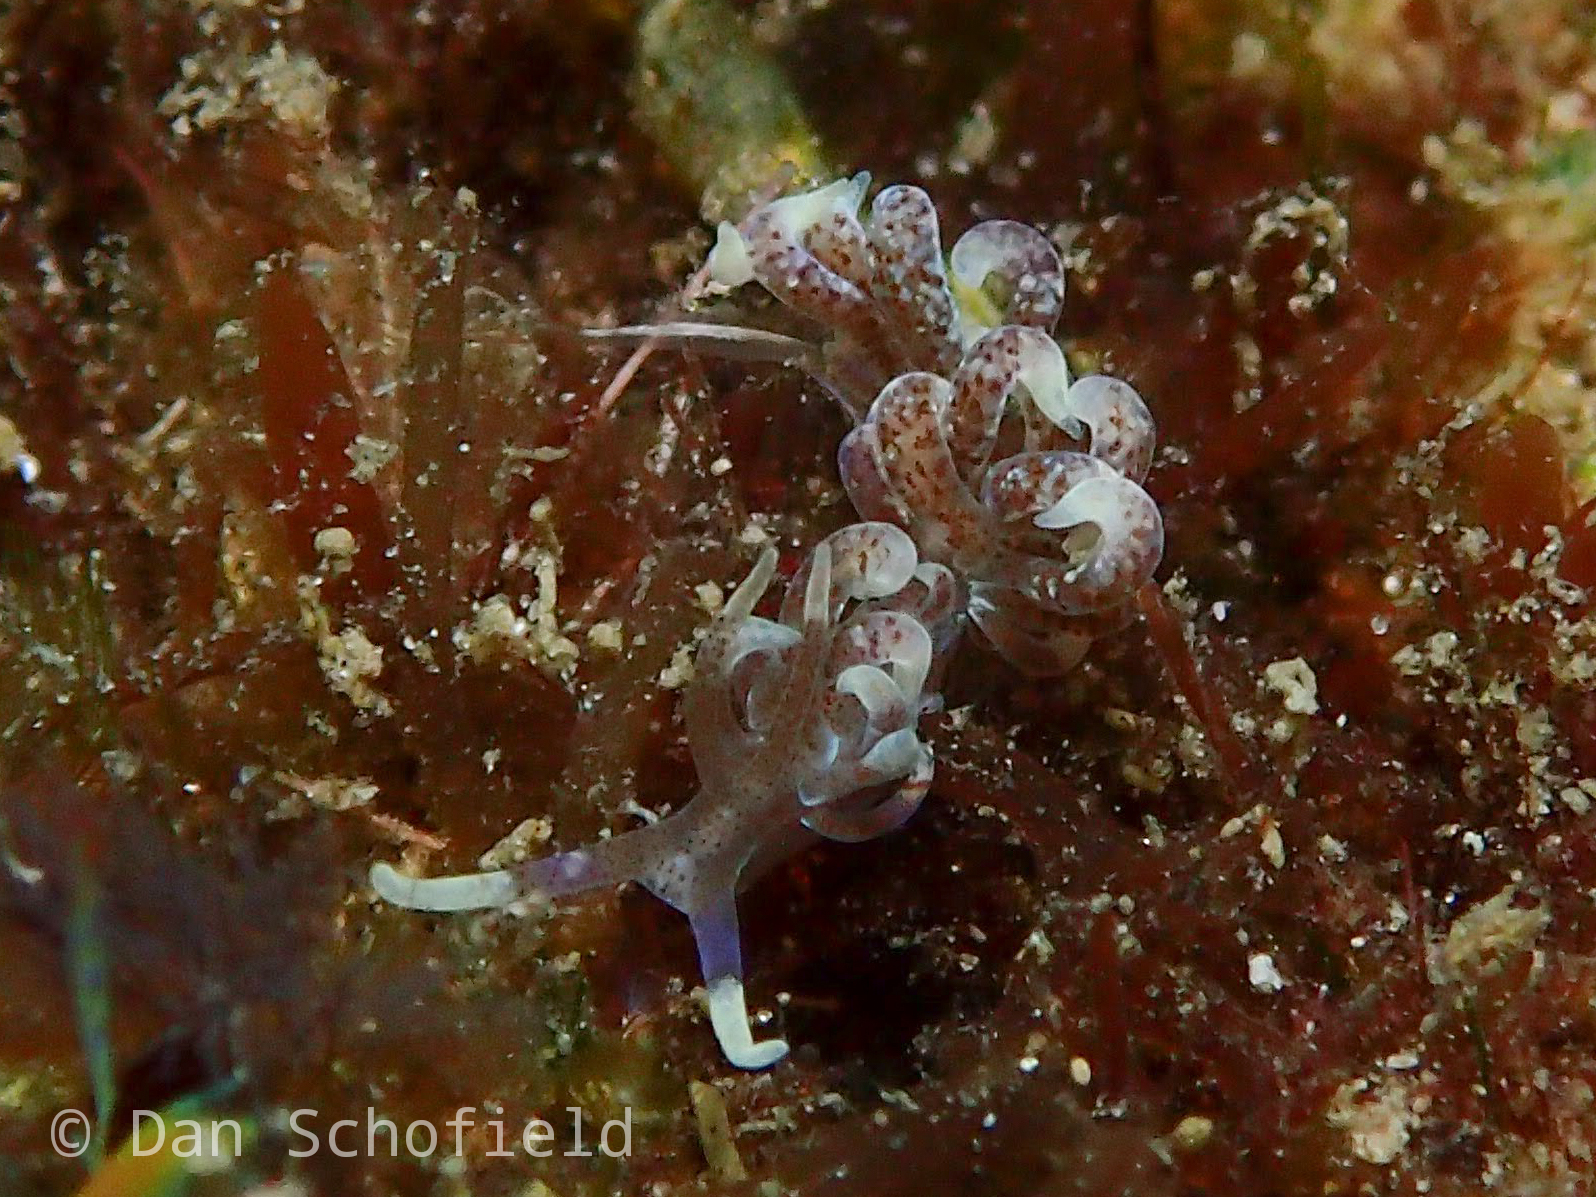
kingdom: Animalia
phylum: Mollusca
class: Gastropoda
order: Nudibranchia
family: Myrrhinidae
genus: Phyllodesmium
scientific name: Phyllodesmium macphersonae
